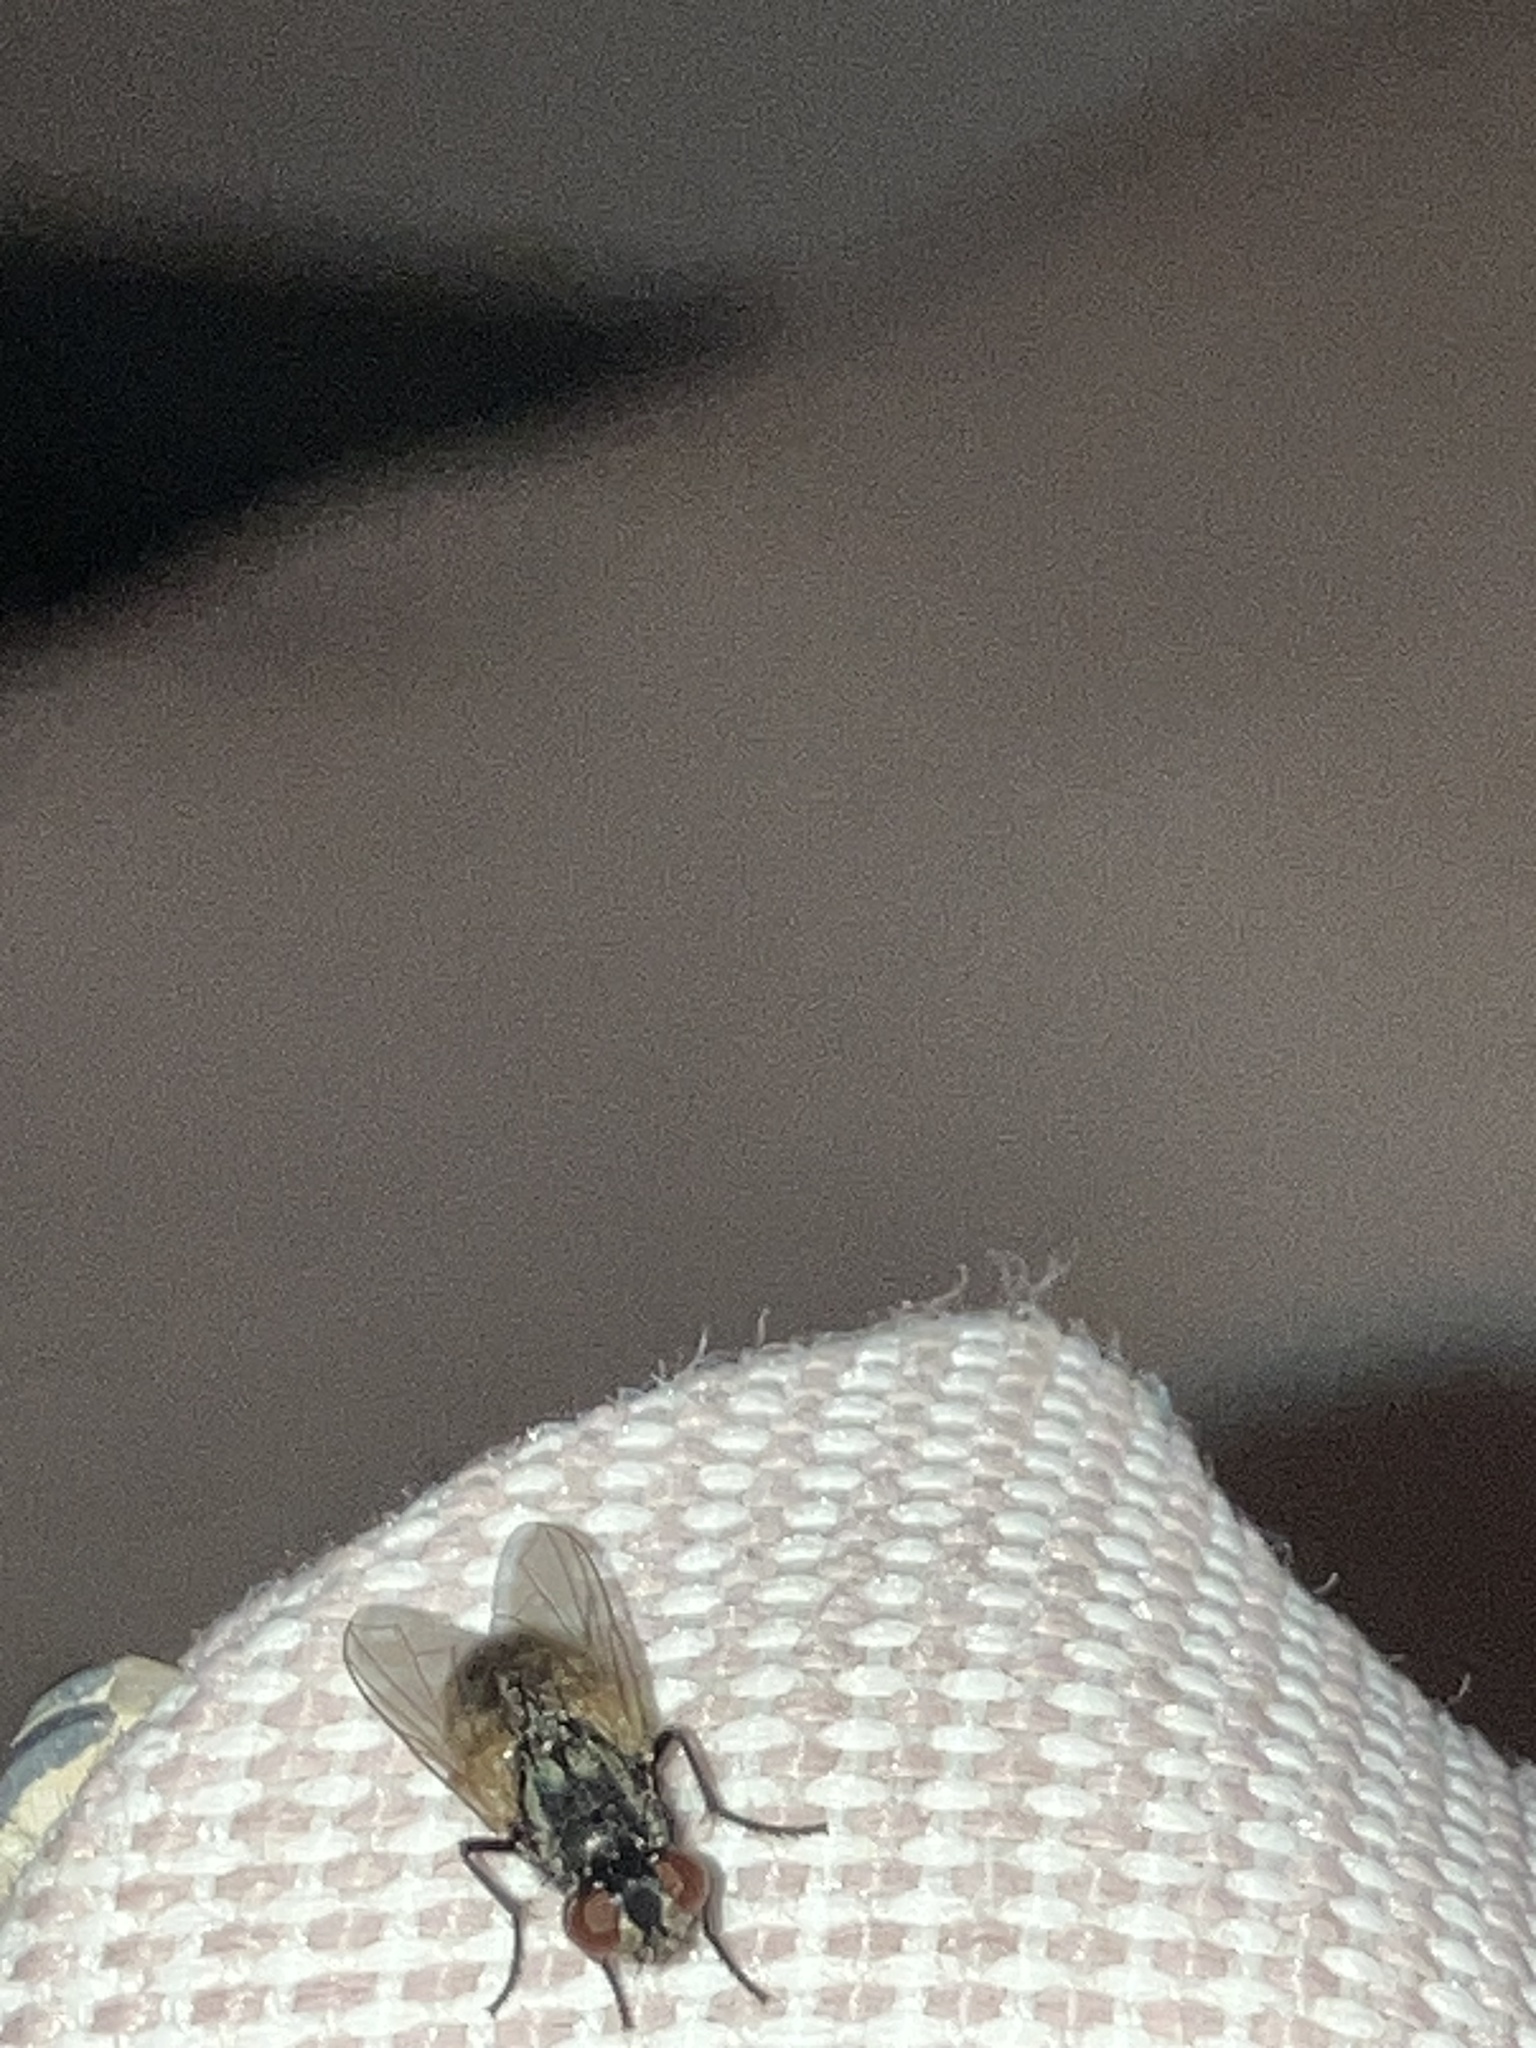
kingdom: Animalia
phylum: Arthropoda
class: Insecta
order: Diptera
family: Muscidae
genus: Musca
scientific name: Musca domestica
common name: House fly
